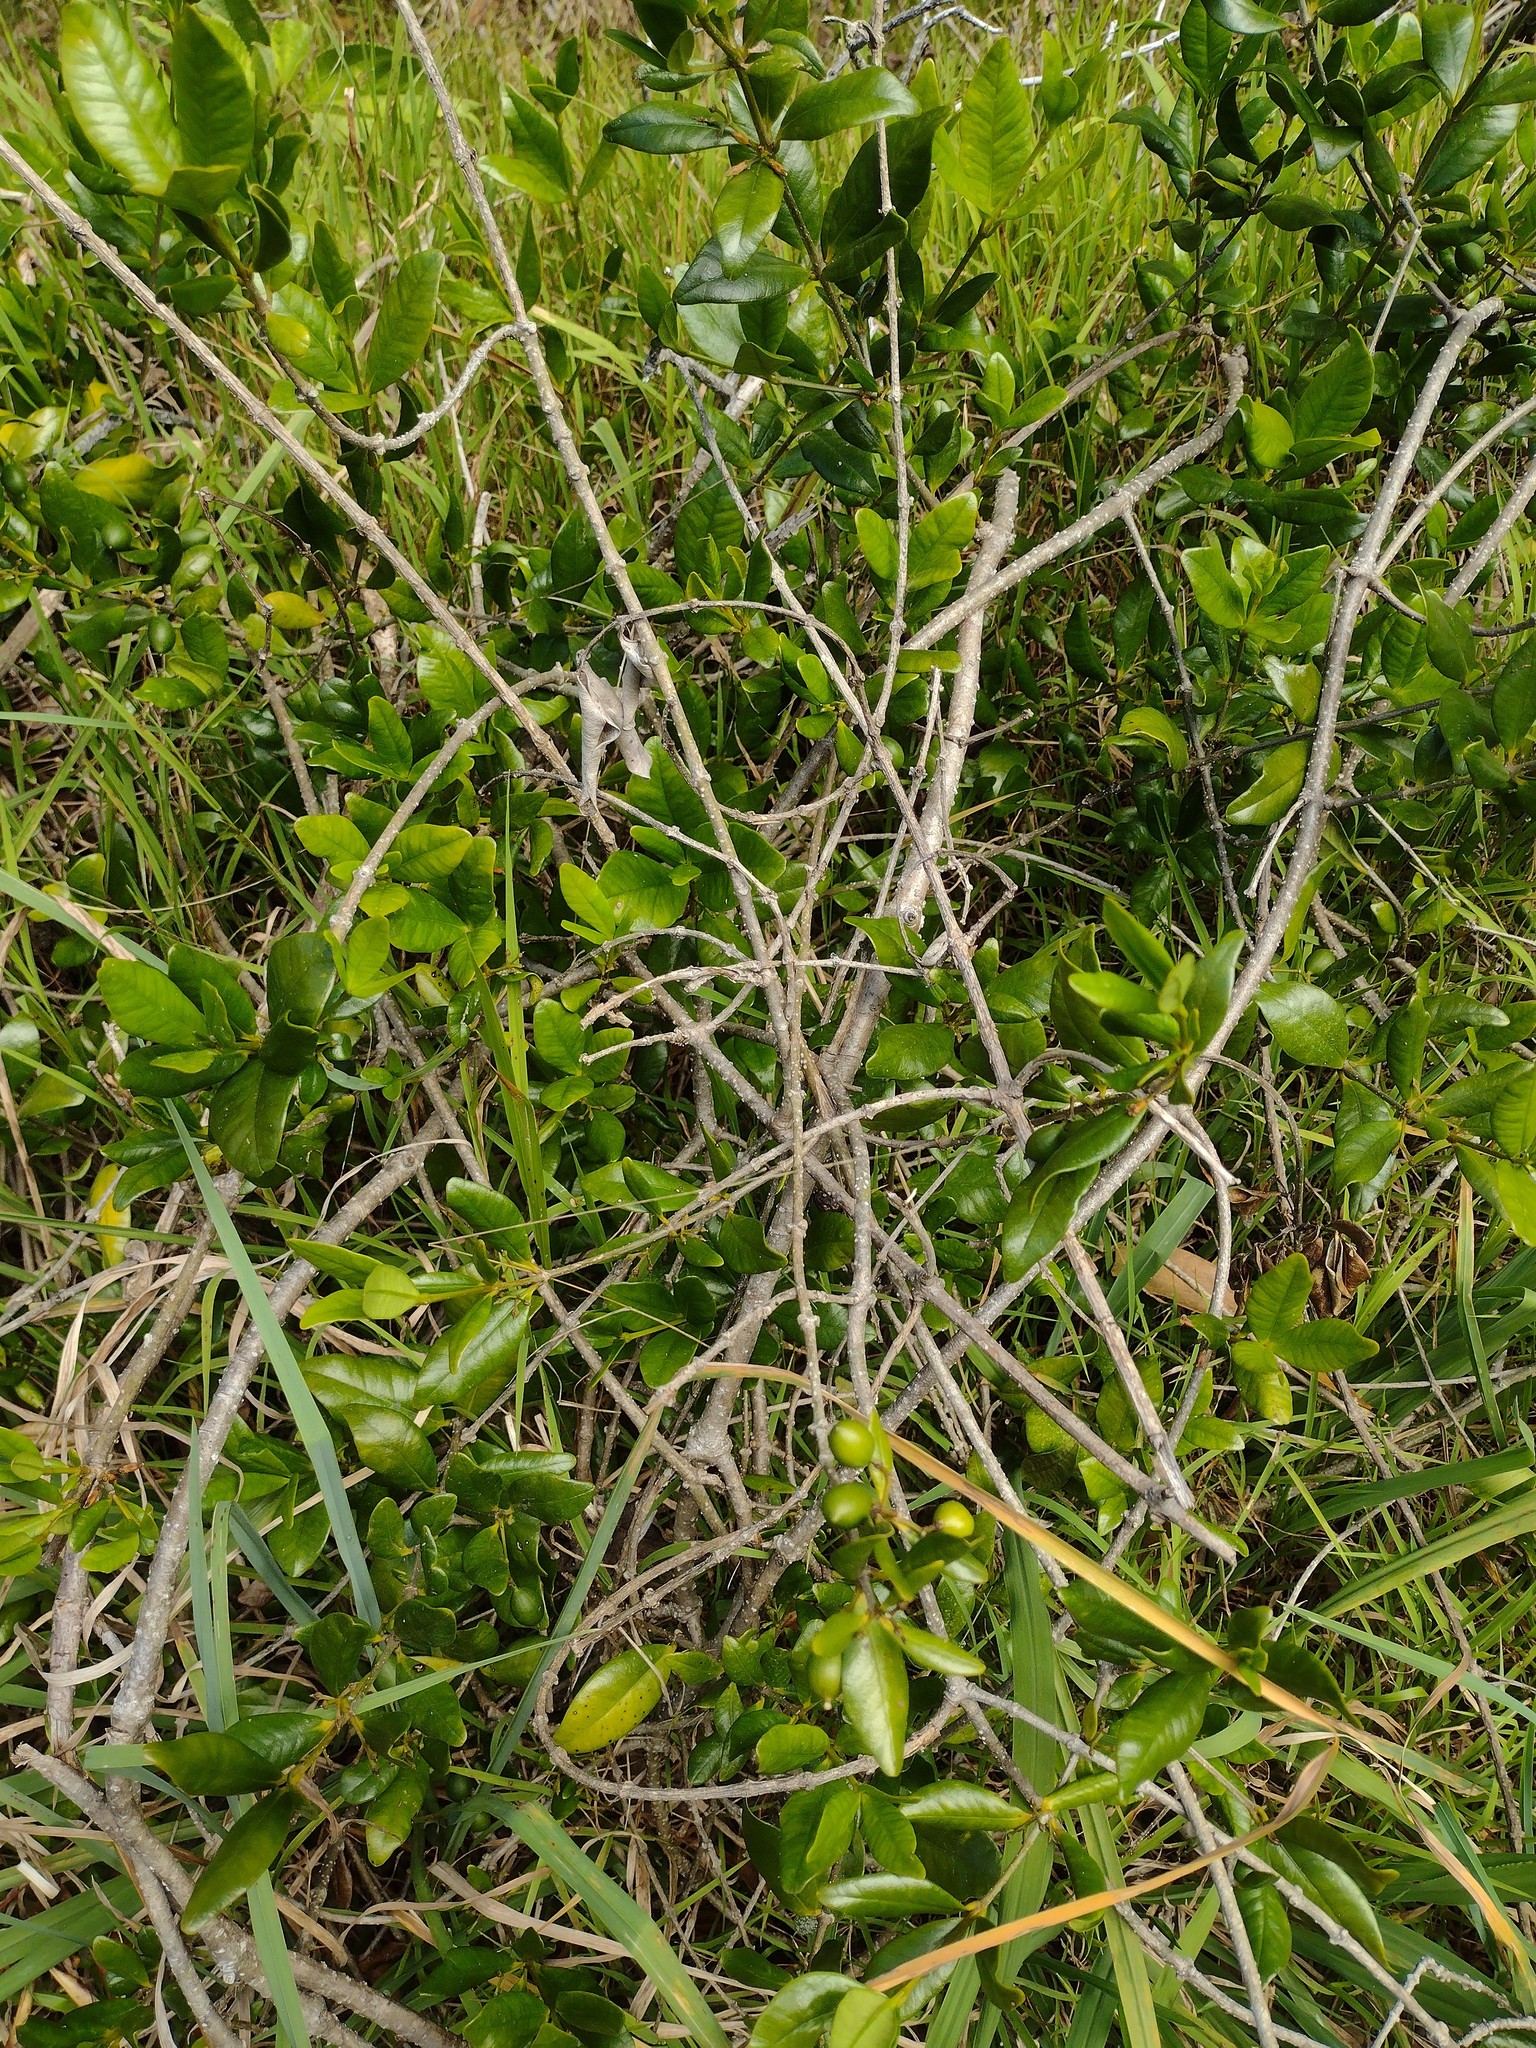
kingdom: Plantae
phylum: Tracheophyta
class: Magnoliopsida
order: Gentianales
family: Apocynaceae
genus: Alyxia
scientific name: Alyxia stellata
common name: Maile
